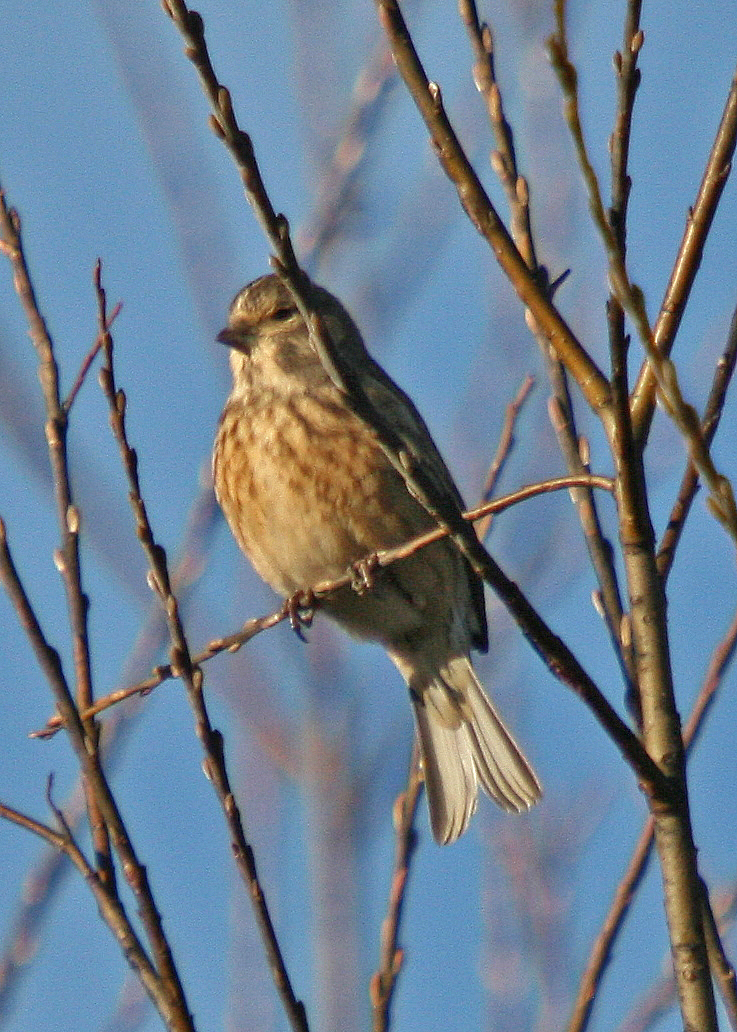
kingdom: Animalia
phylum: Chordata
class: Aves
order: Passeriformes
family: Fringillidae
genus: Linaria
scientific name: Linaria cannabina
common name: Common linnet
